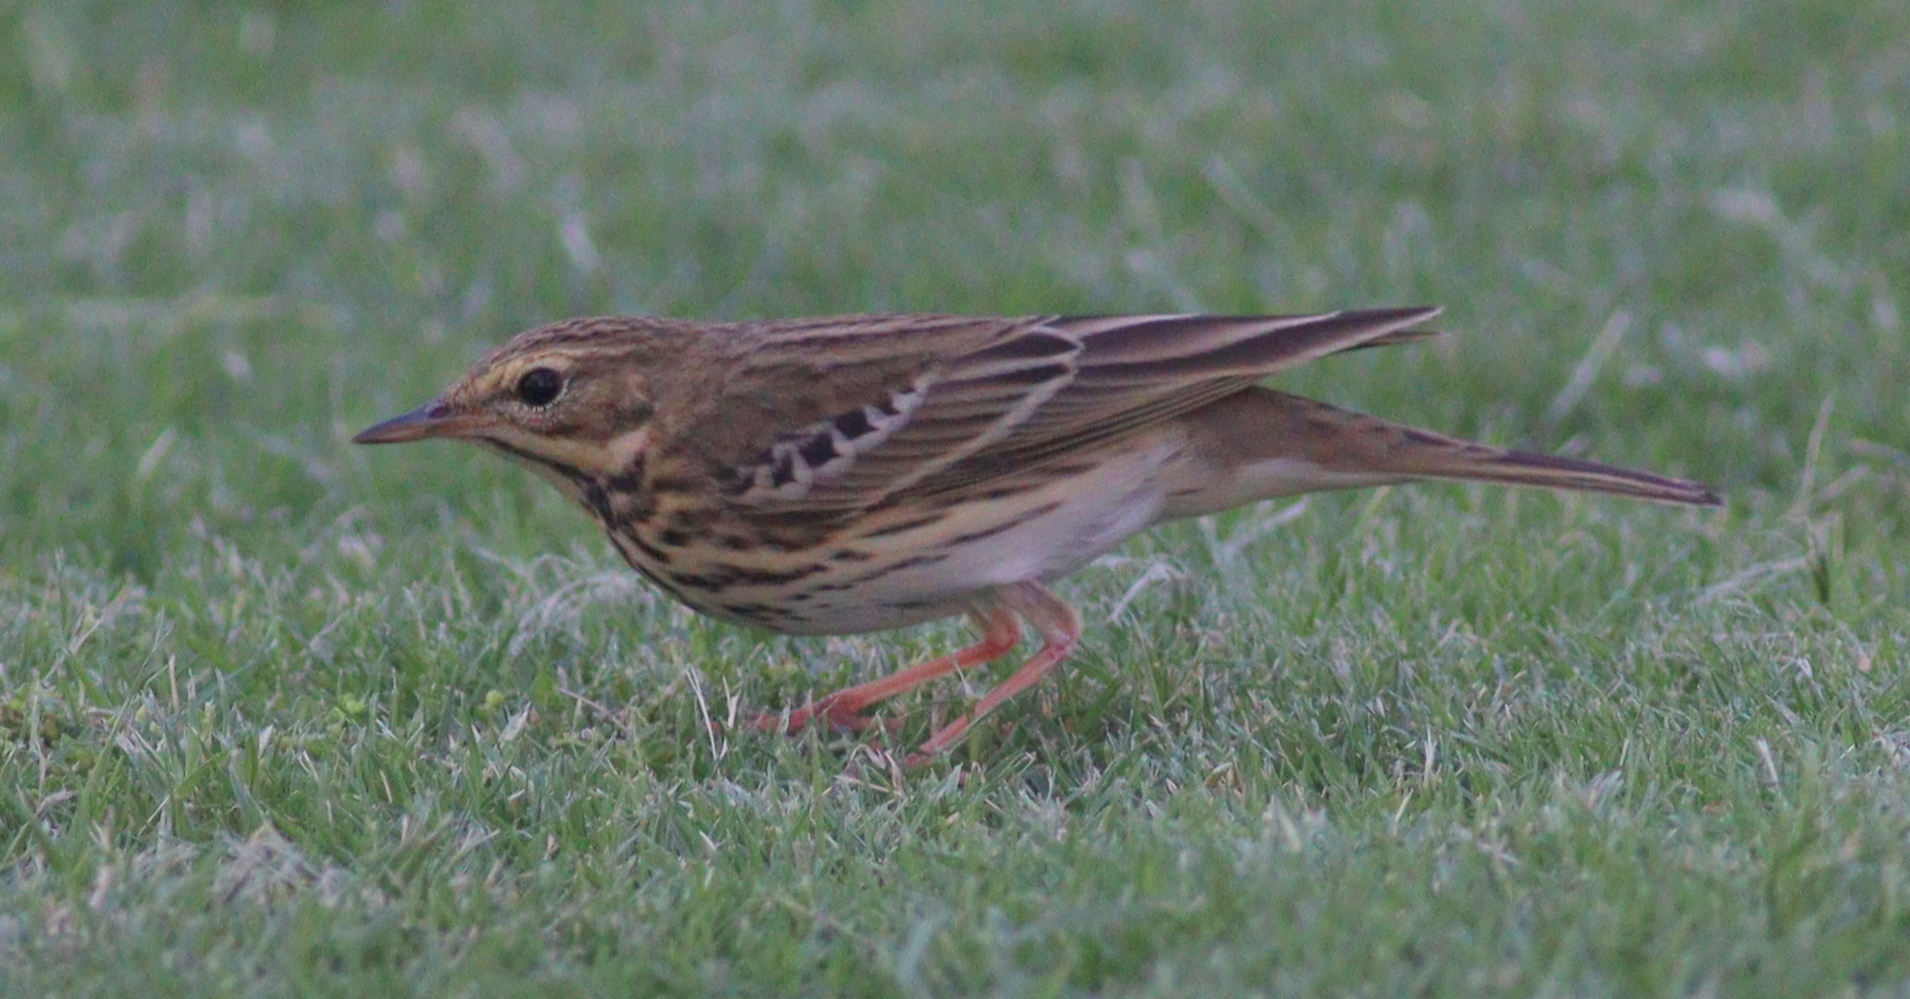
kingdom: Animalia
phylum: Chordata
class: Aves
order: Passeriformes
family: Motacillidae
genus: Anthus
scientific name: Anthus trivialis
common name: Tree pipit
